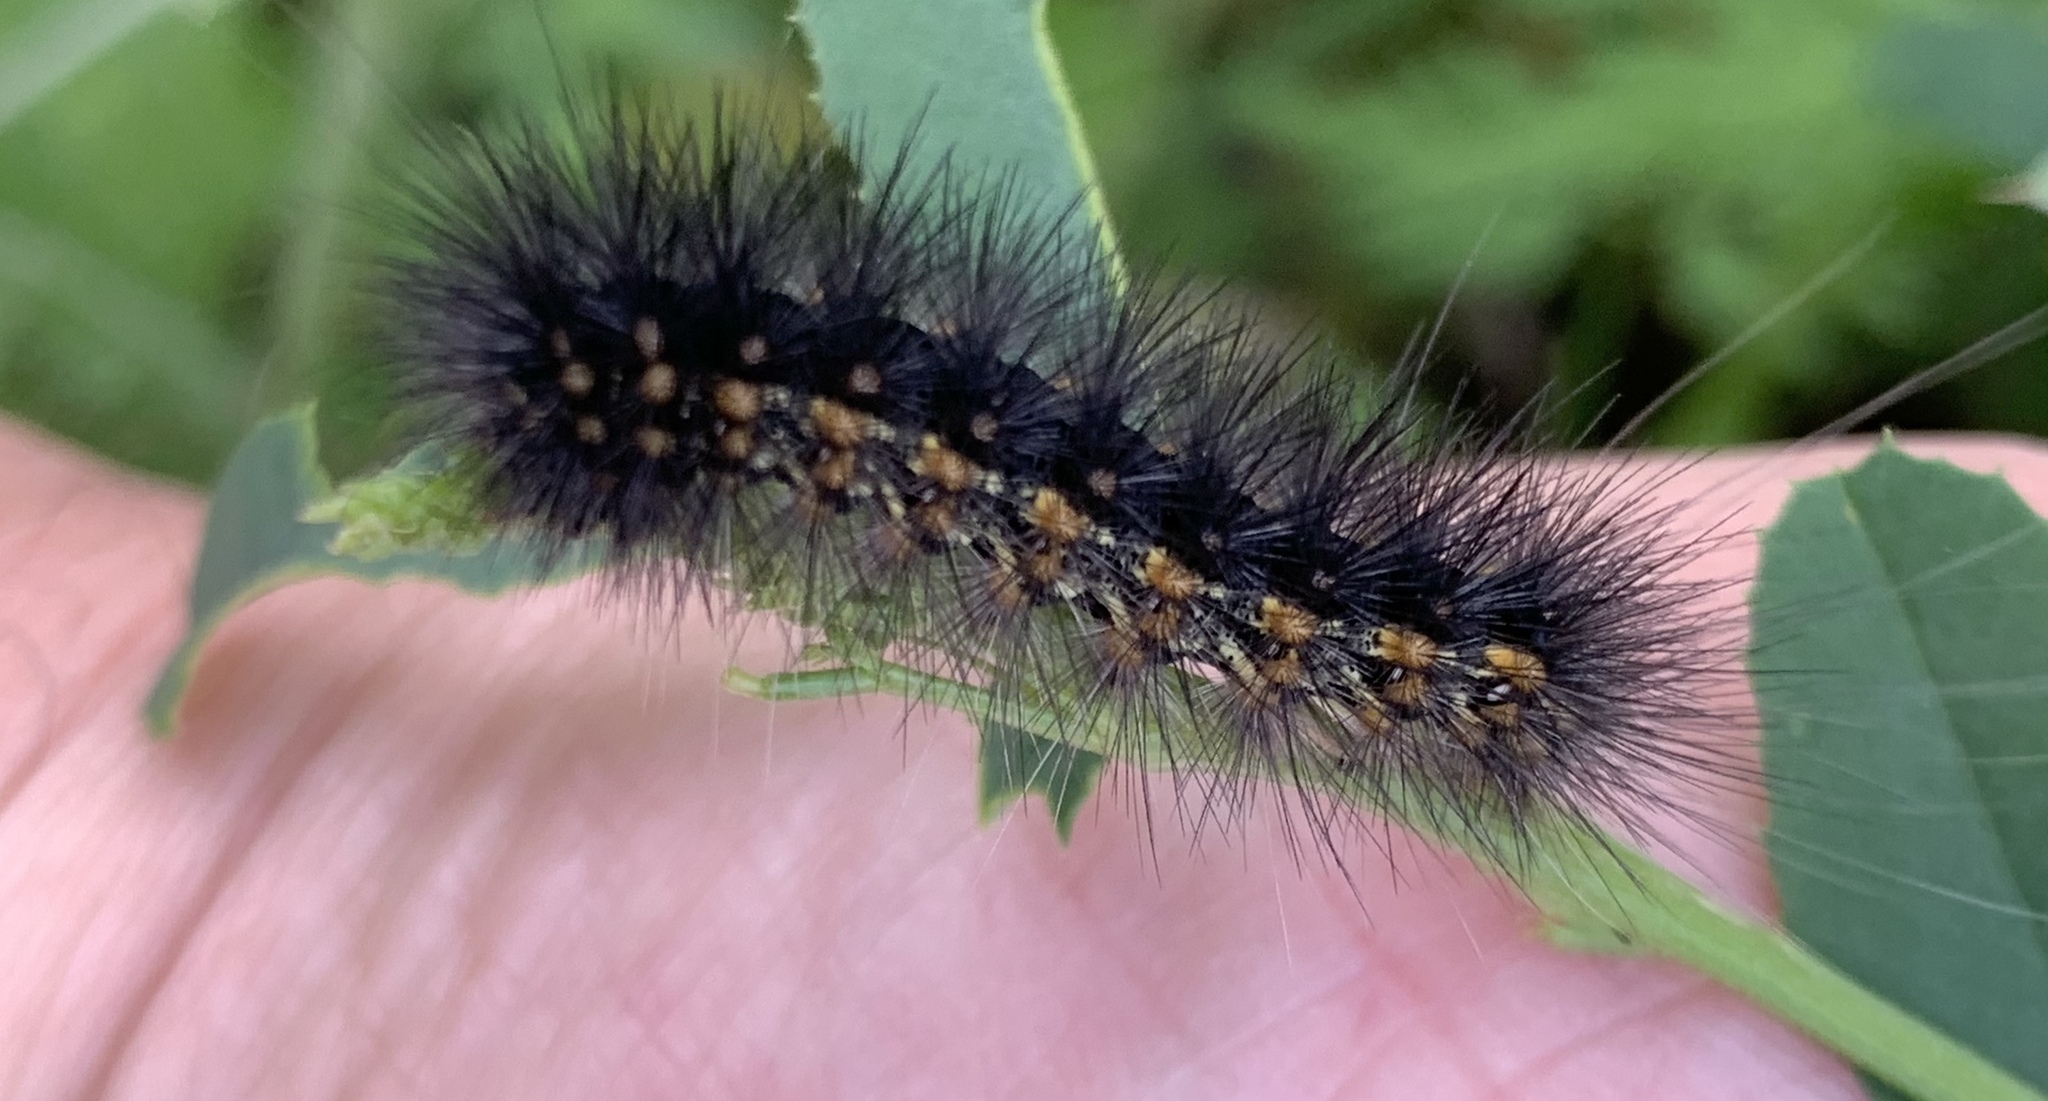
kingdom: Animalia
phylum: Arthropoda
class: Insecta
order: Lepidoptera
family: Erebidae
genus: Estigmene
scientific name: Estigmene acrea
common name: Salt marsh moth
